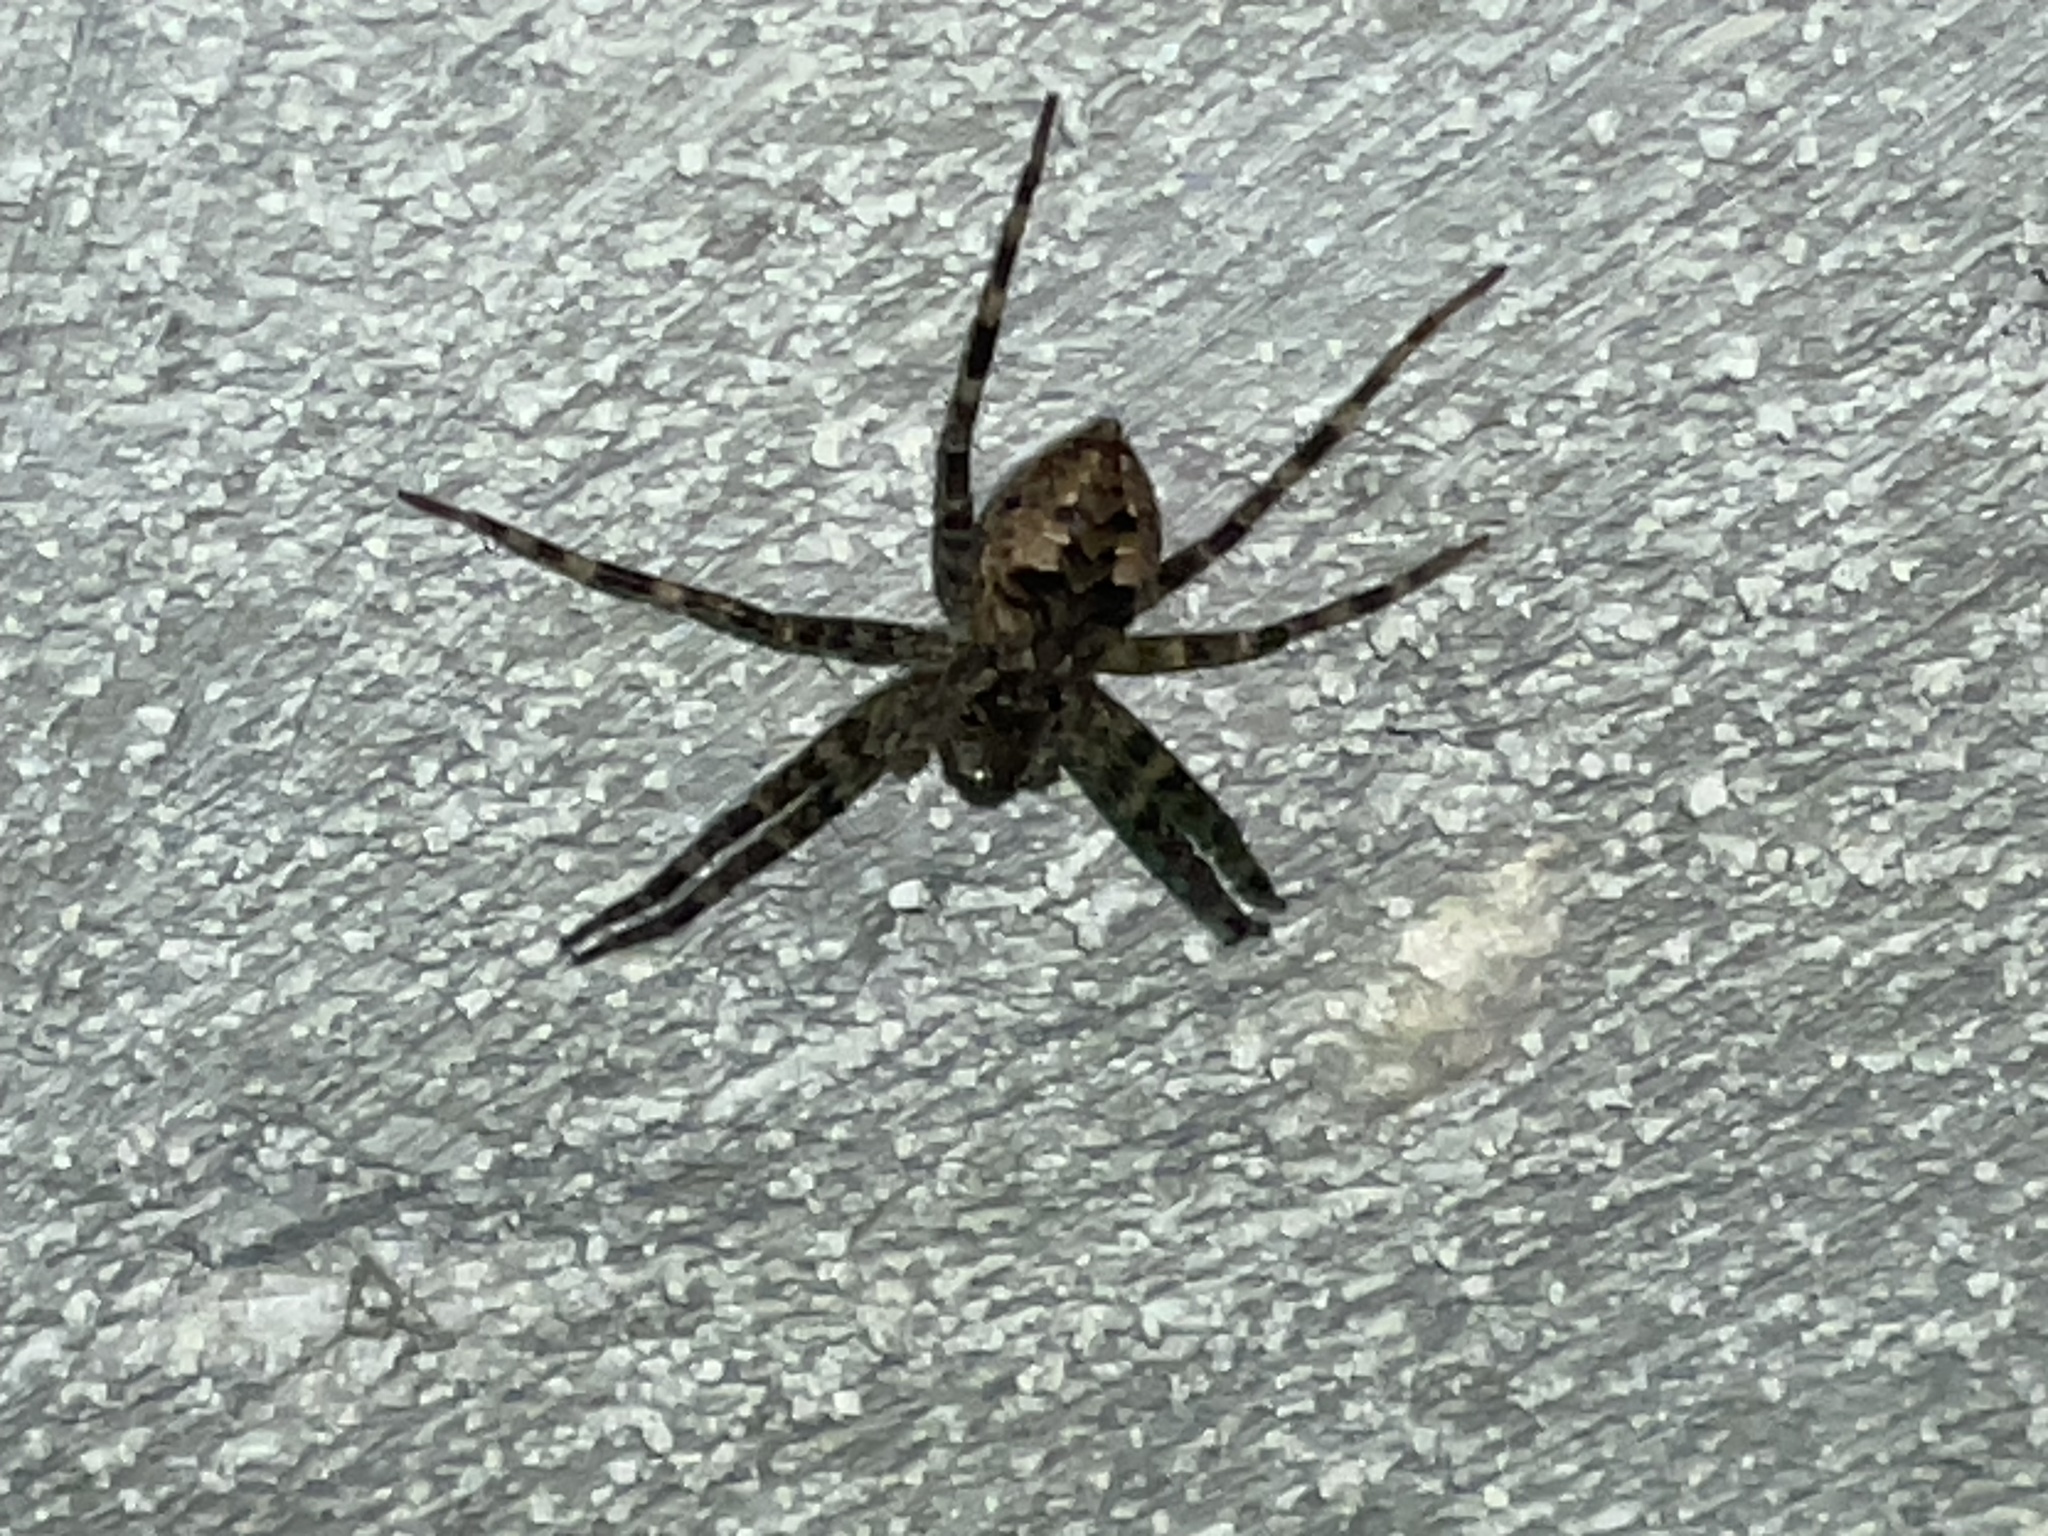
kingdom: Animalia
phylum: Arthropoda
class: Arachnida
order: Araneae
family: Pisauridae
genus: Dolomedes
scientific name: Dolomedes tenebrosus
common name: Dark fishing spider
